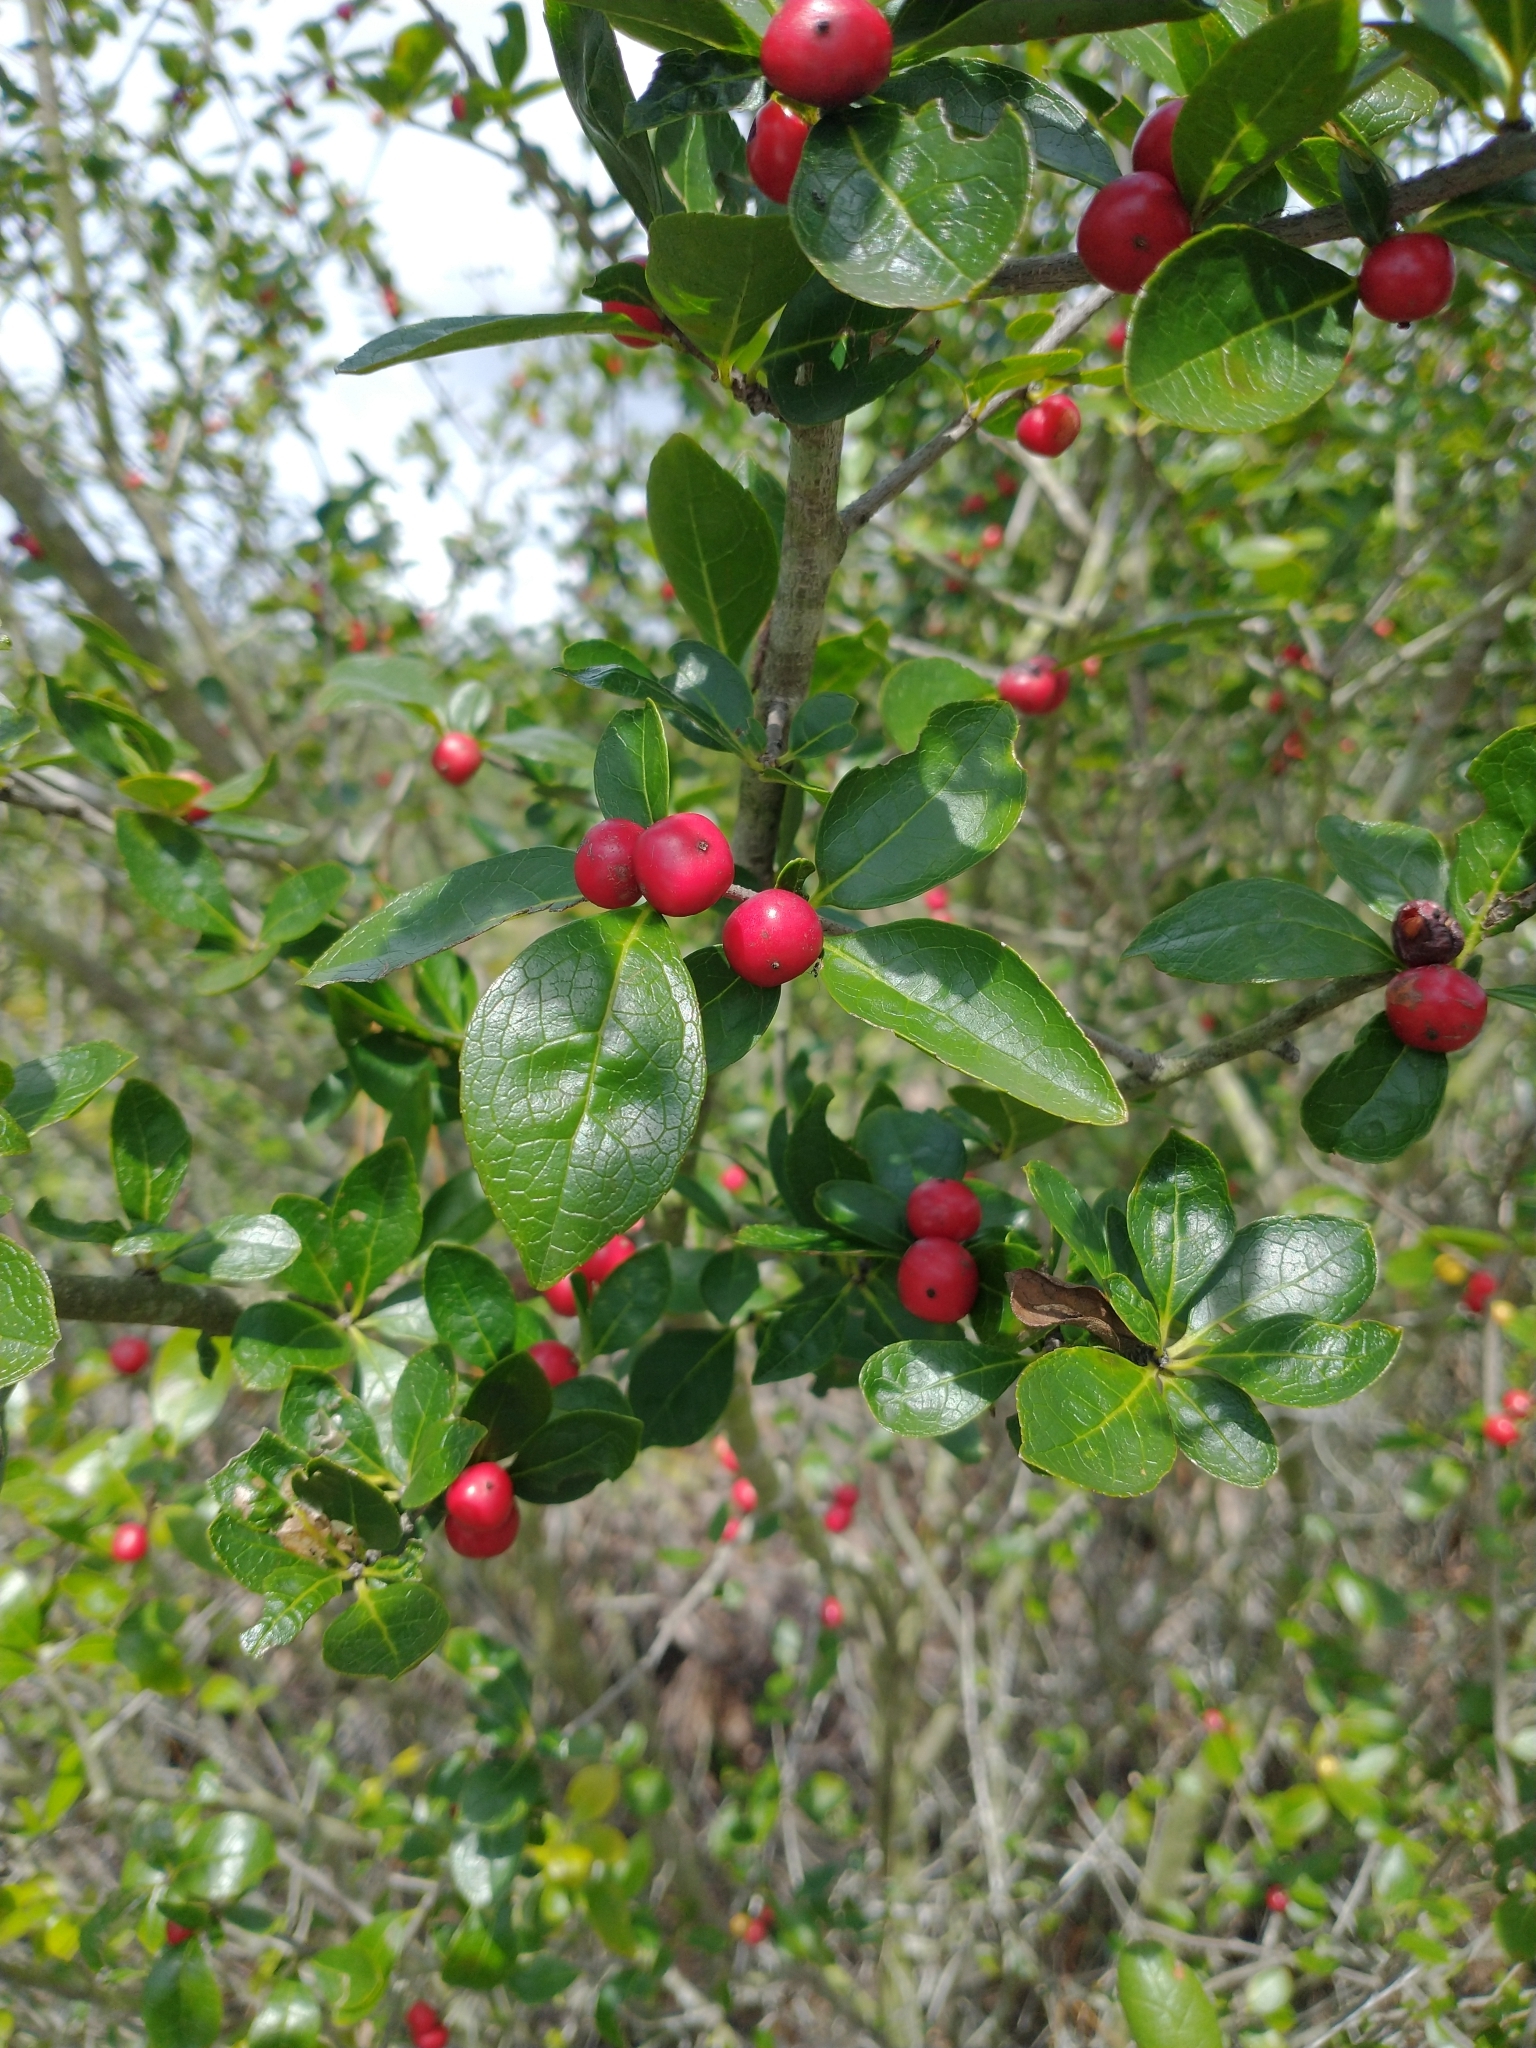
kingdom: Plantae
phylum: Tracheophyta
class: Magnoliopsida
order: Aquifoliales
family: Aquifoliaceae
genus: Ilex
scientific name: Ilex ambigua
